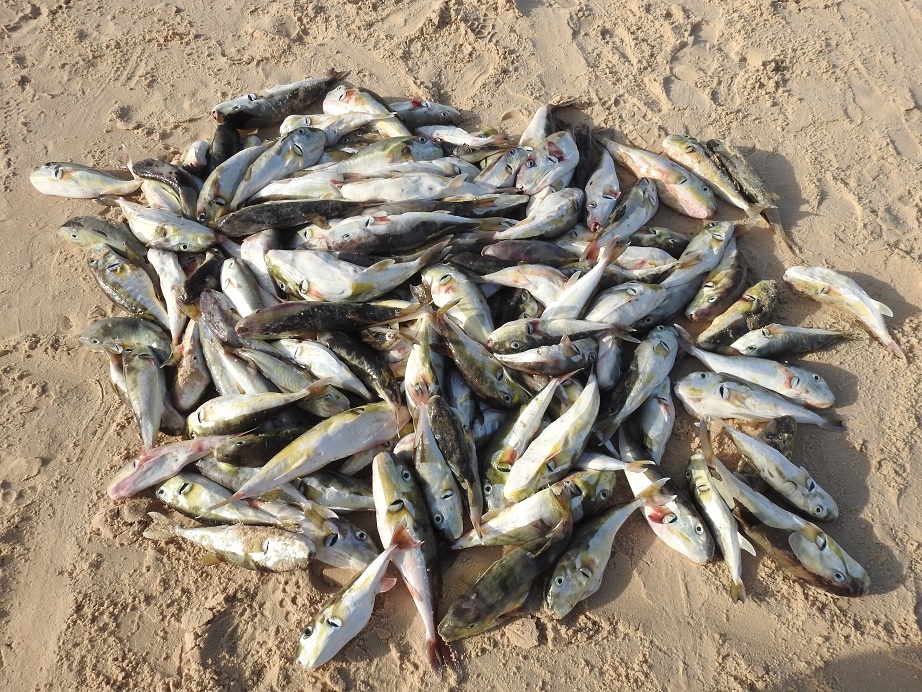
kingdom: Animalia
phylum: Chordata
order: Tetraodontiformes
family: Tetraodontidae
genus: Lagocephalus
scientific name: Lagocephalus laevigatus
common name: Puffer
